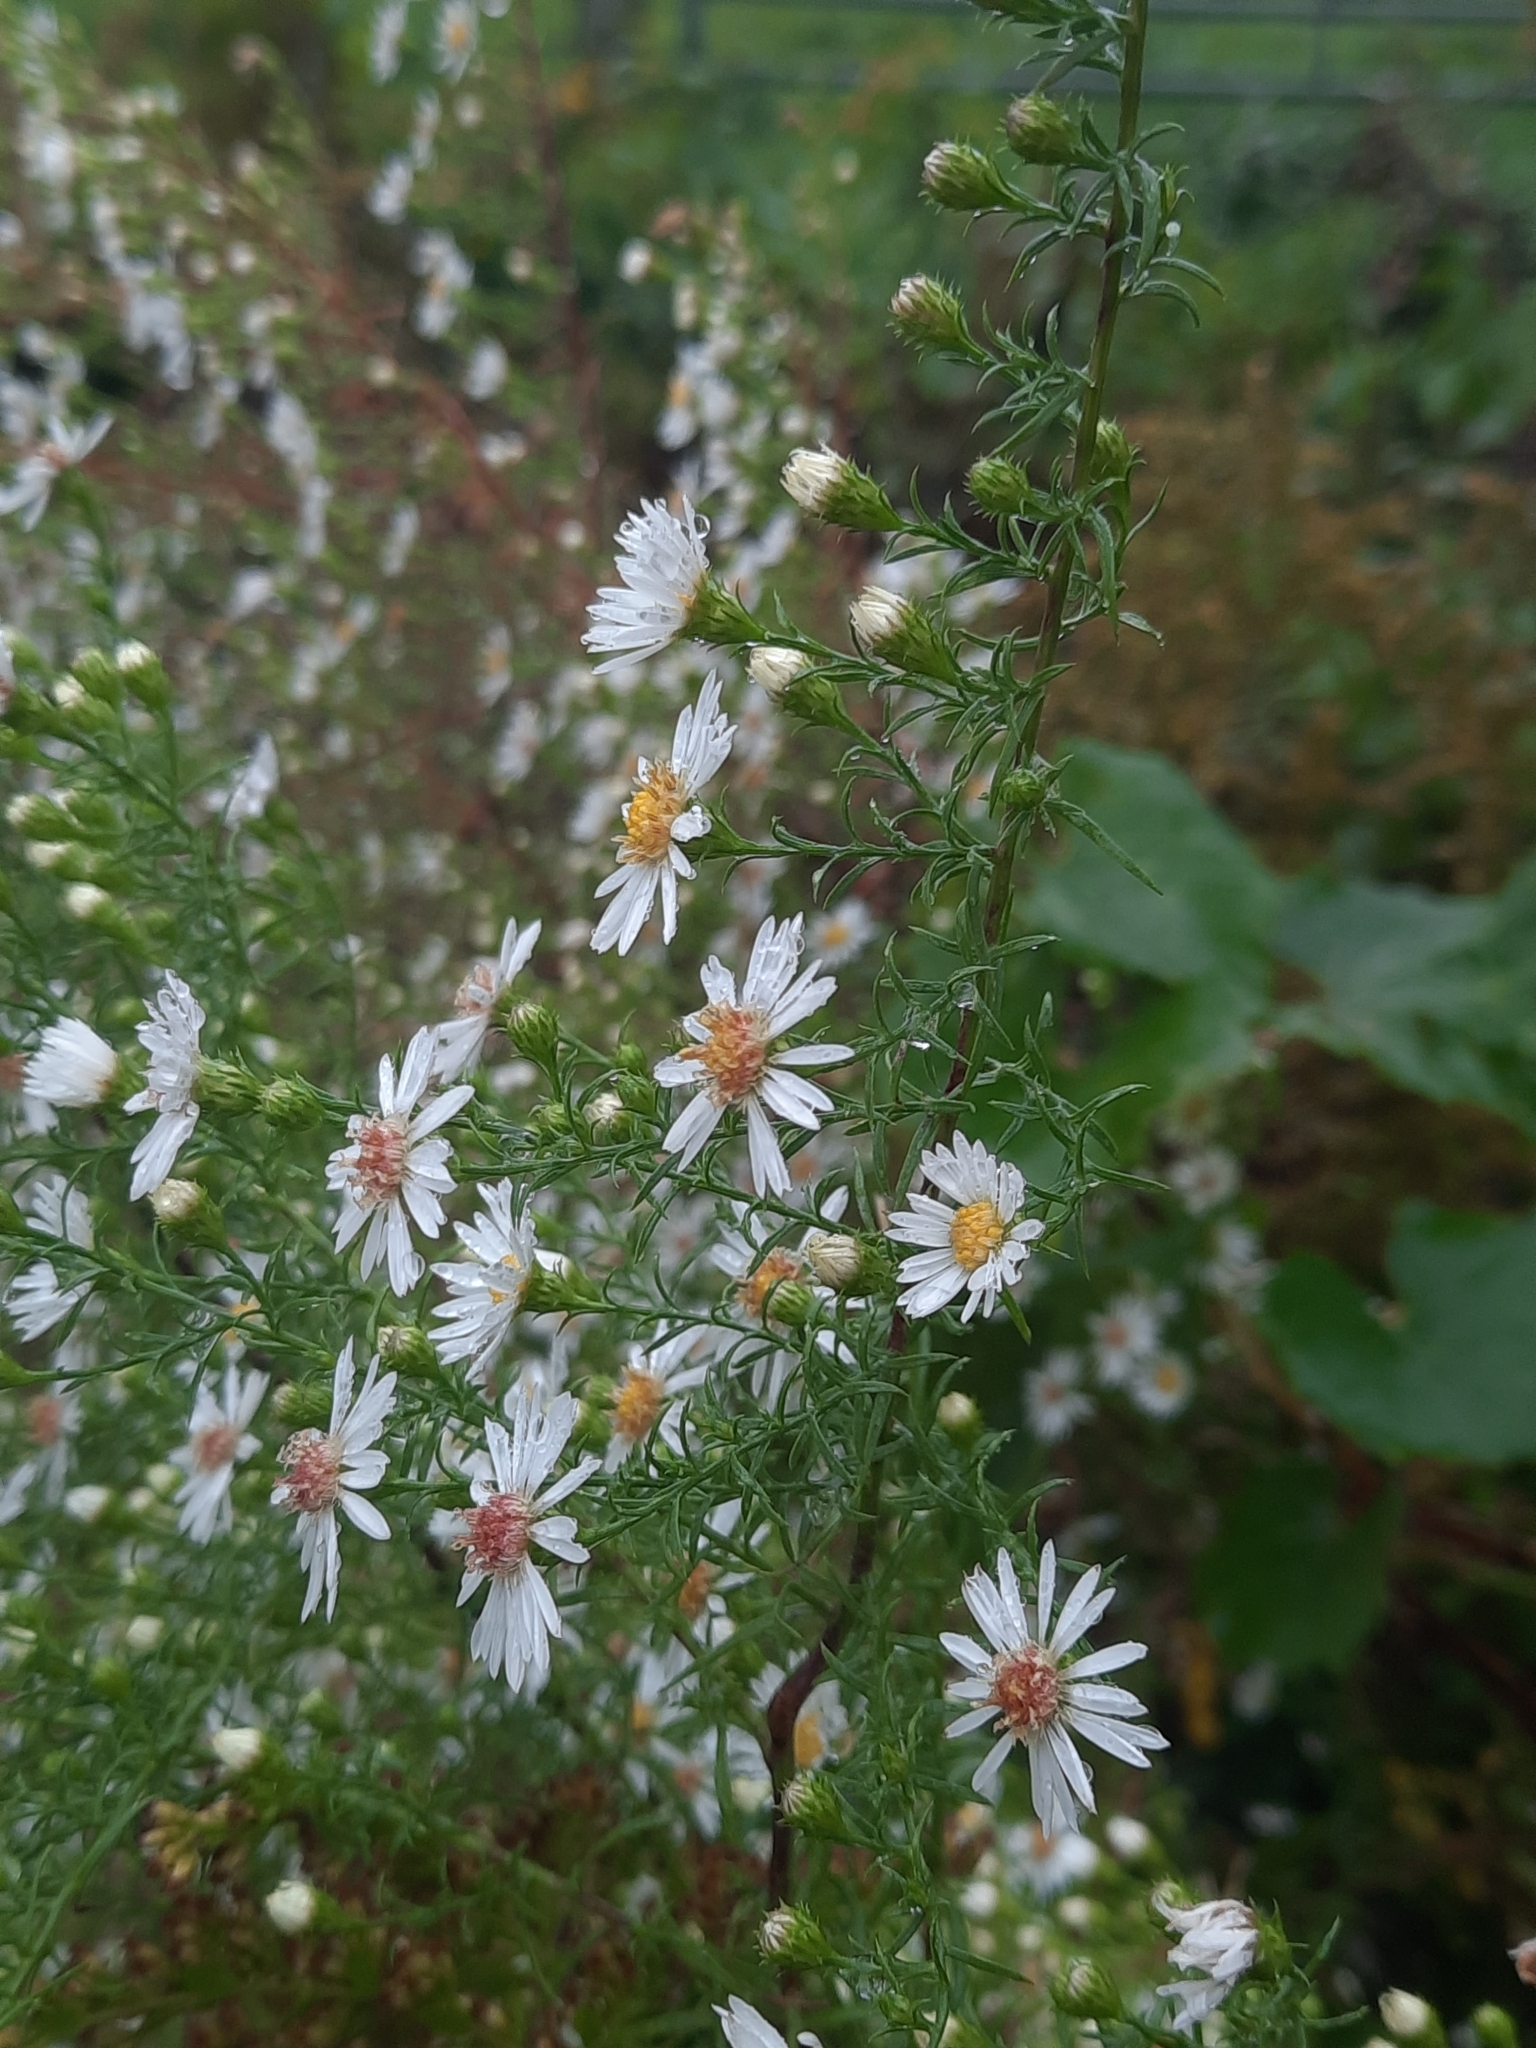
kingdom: Plantae
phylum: Tracheophyta
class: Magnoliopsida
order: Asterales
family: Asteraceae
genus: Symphyotrichum
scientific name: Symphyotrichum pilosum
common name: Awl aster
